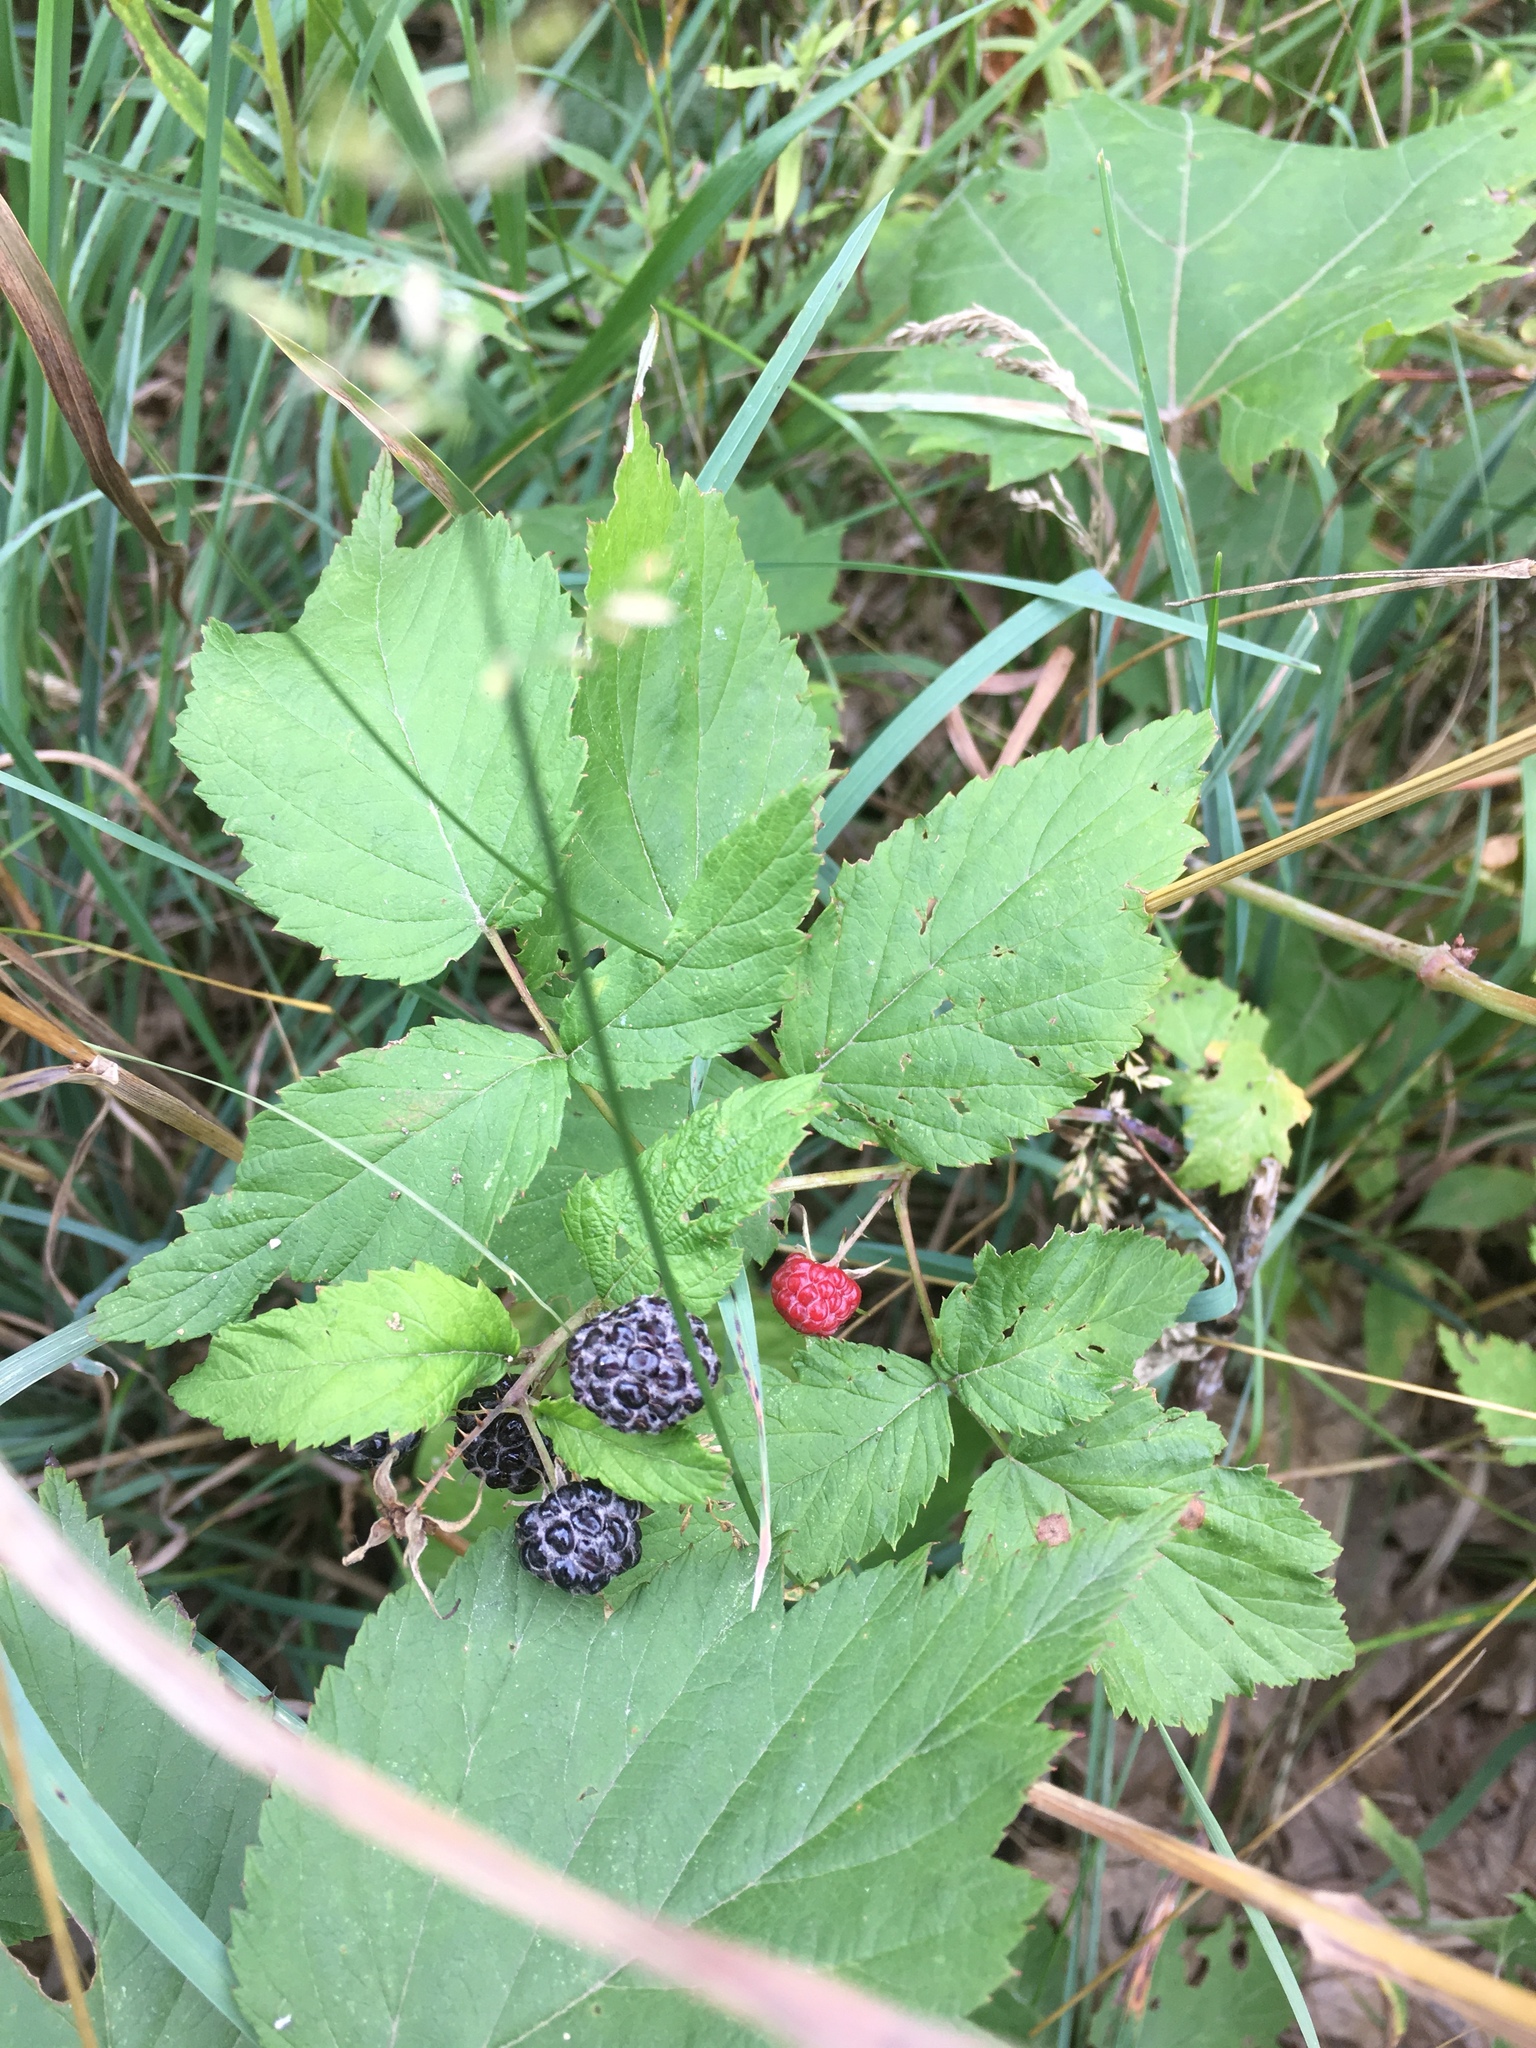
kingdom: Plantae
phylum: Tracheophyta
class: Magnoliopsida
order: Rosales
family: Rosaceae
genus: Rubus
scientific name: Rubus occidentalis
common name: Black raspberry
